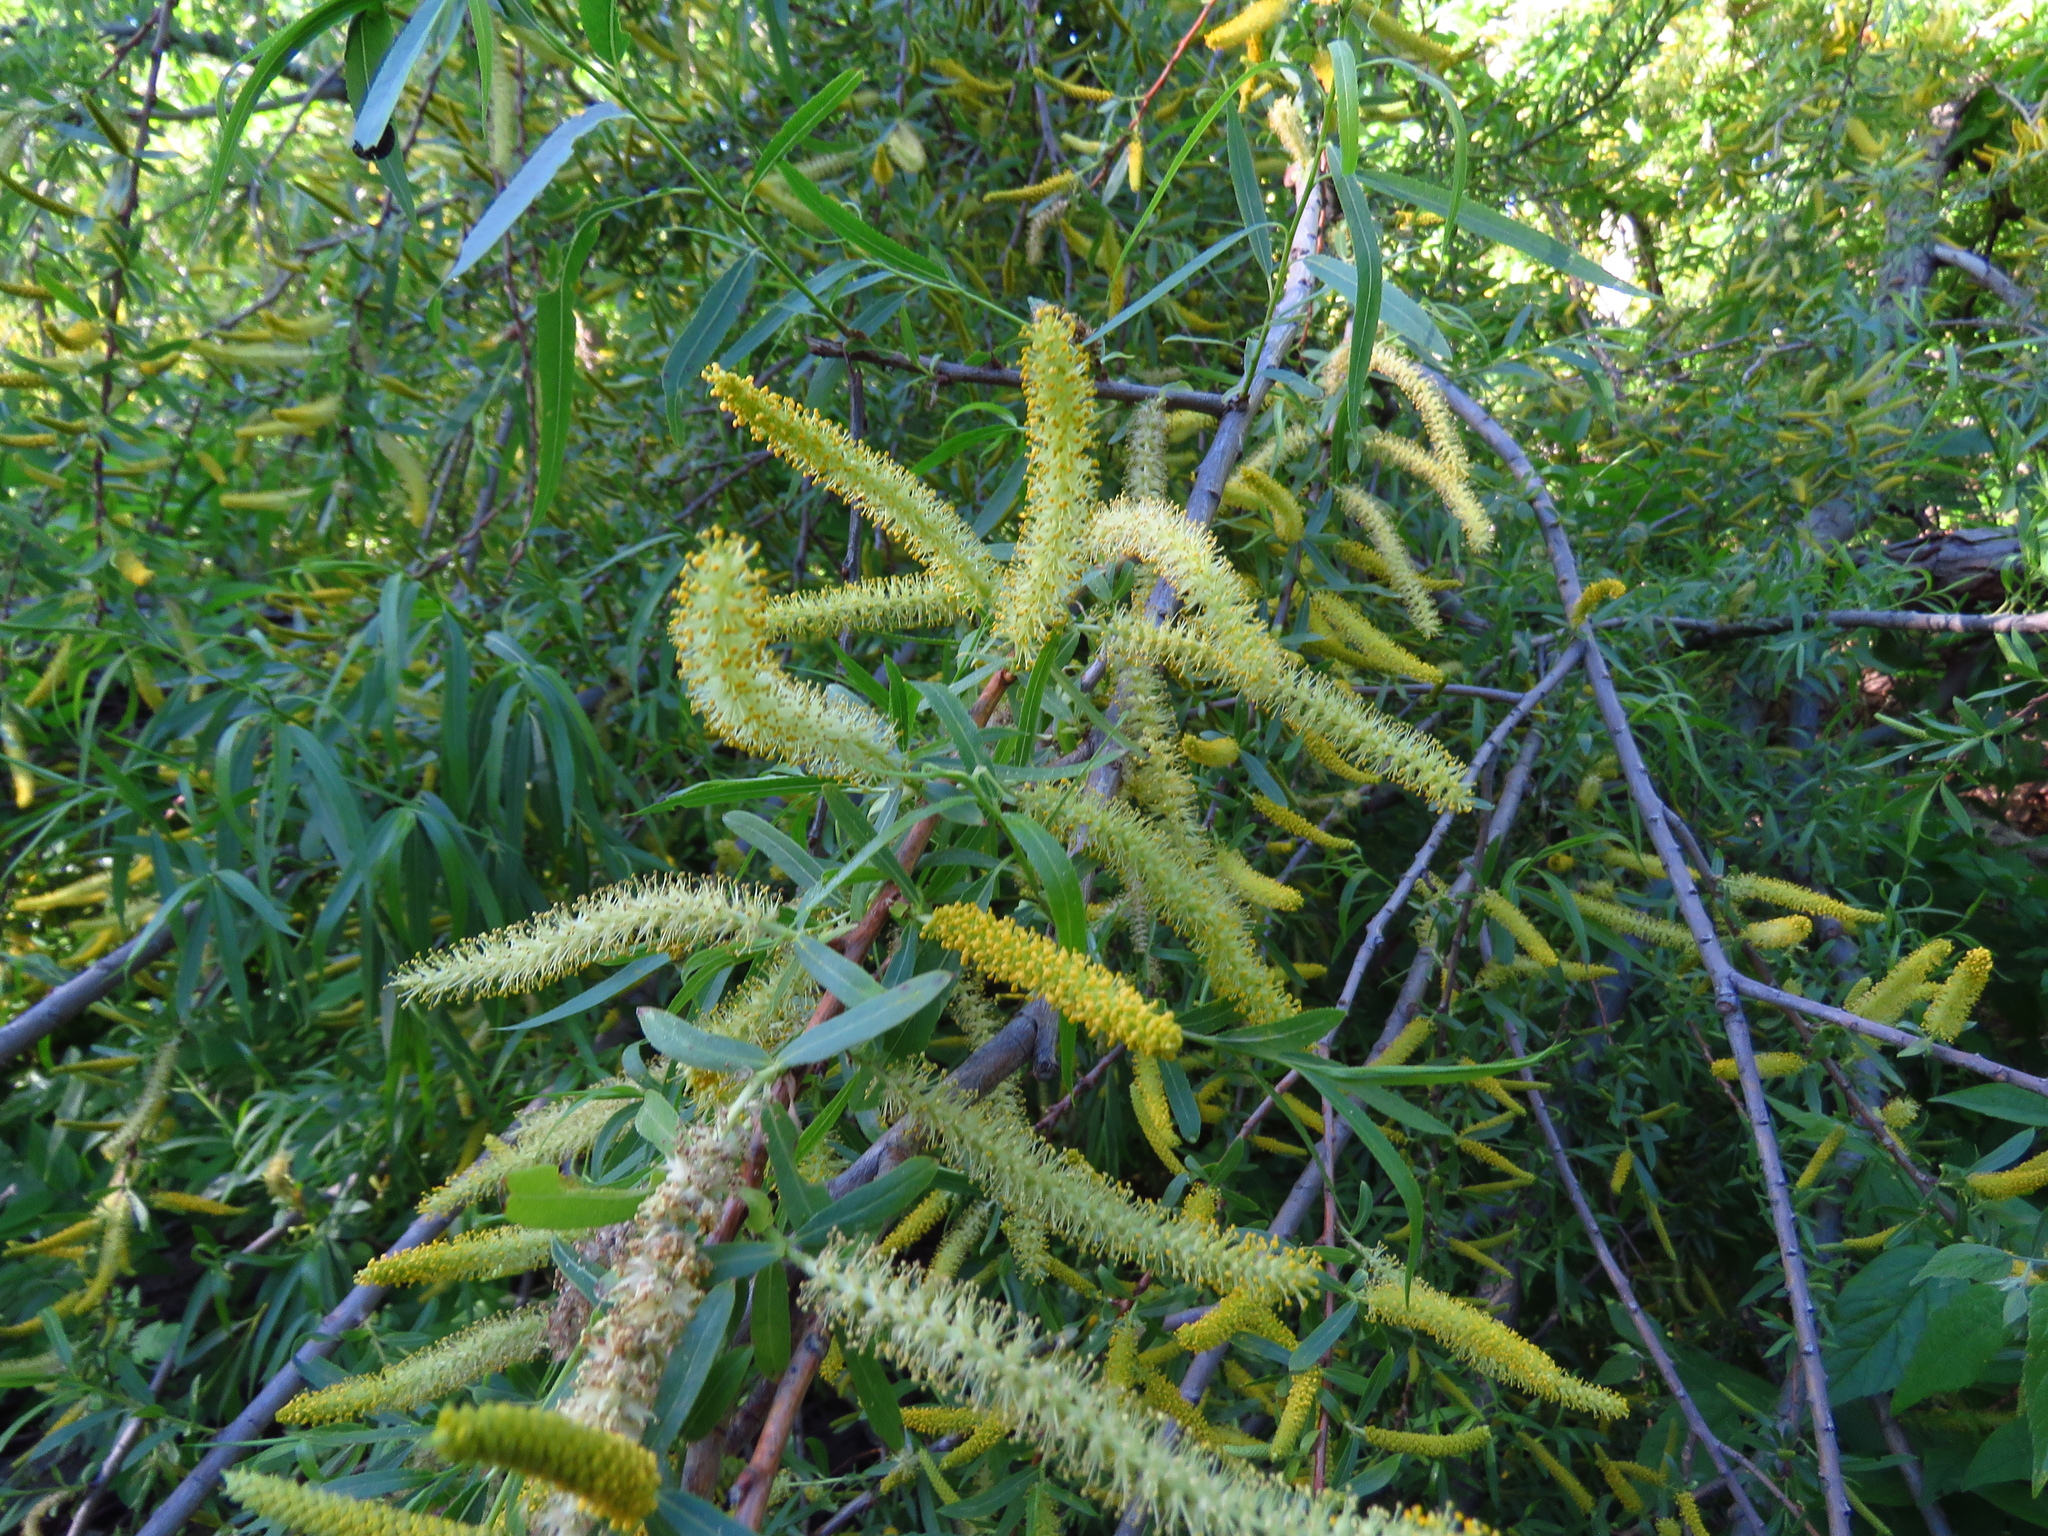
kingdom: Plantae
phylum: Tracheophyta
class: Magnoliopsida
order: Malpighiales
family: Salicaceae
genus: Salix
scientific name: Salix nigra
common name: Black willow
